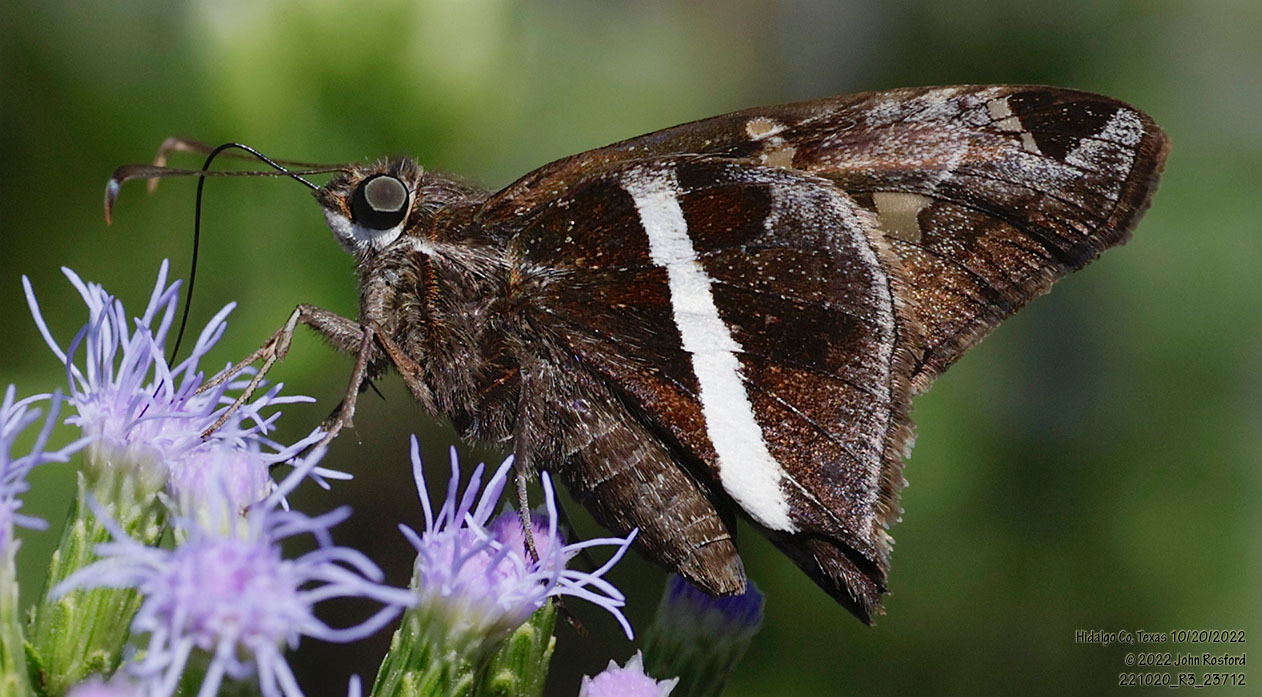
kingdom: Animalia
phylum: Arthropoda
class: Insecta
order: Lepidoptera
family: Hesperiidae
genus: Chioides
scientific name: Chioides catillus
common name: Silverbanded skipper
